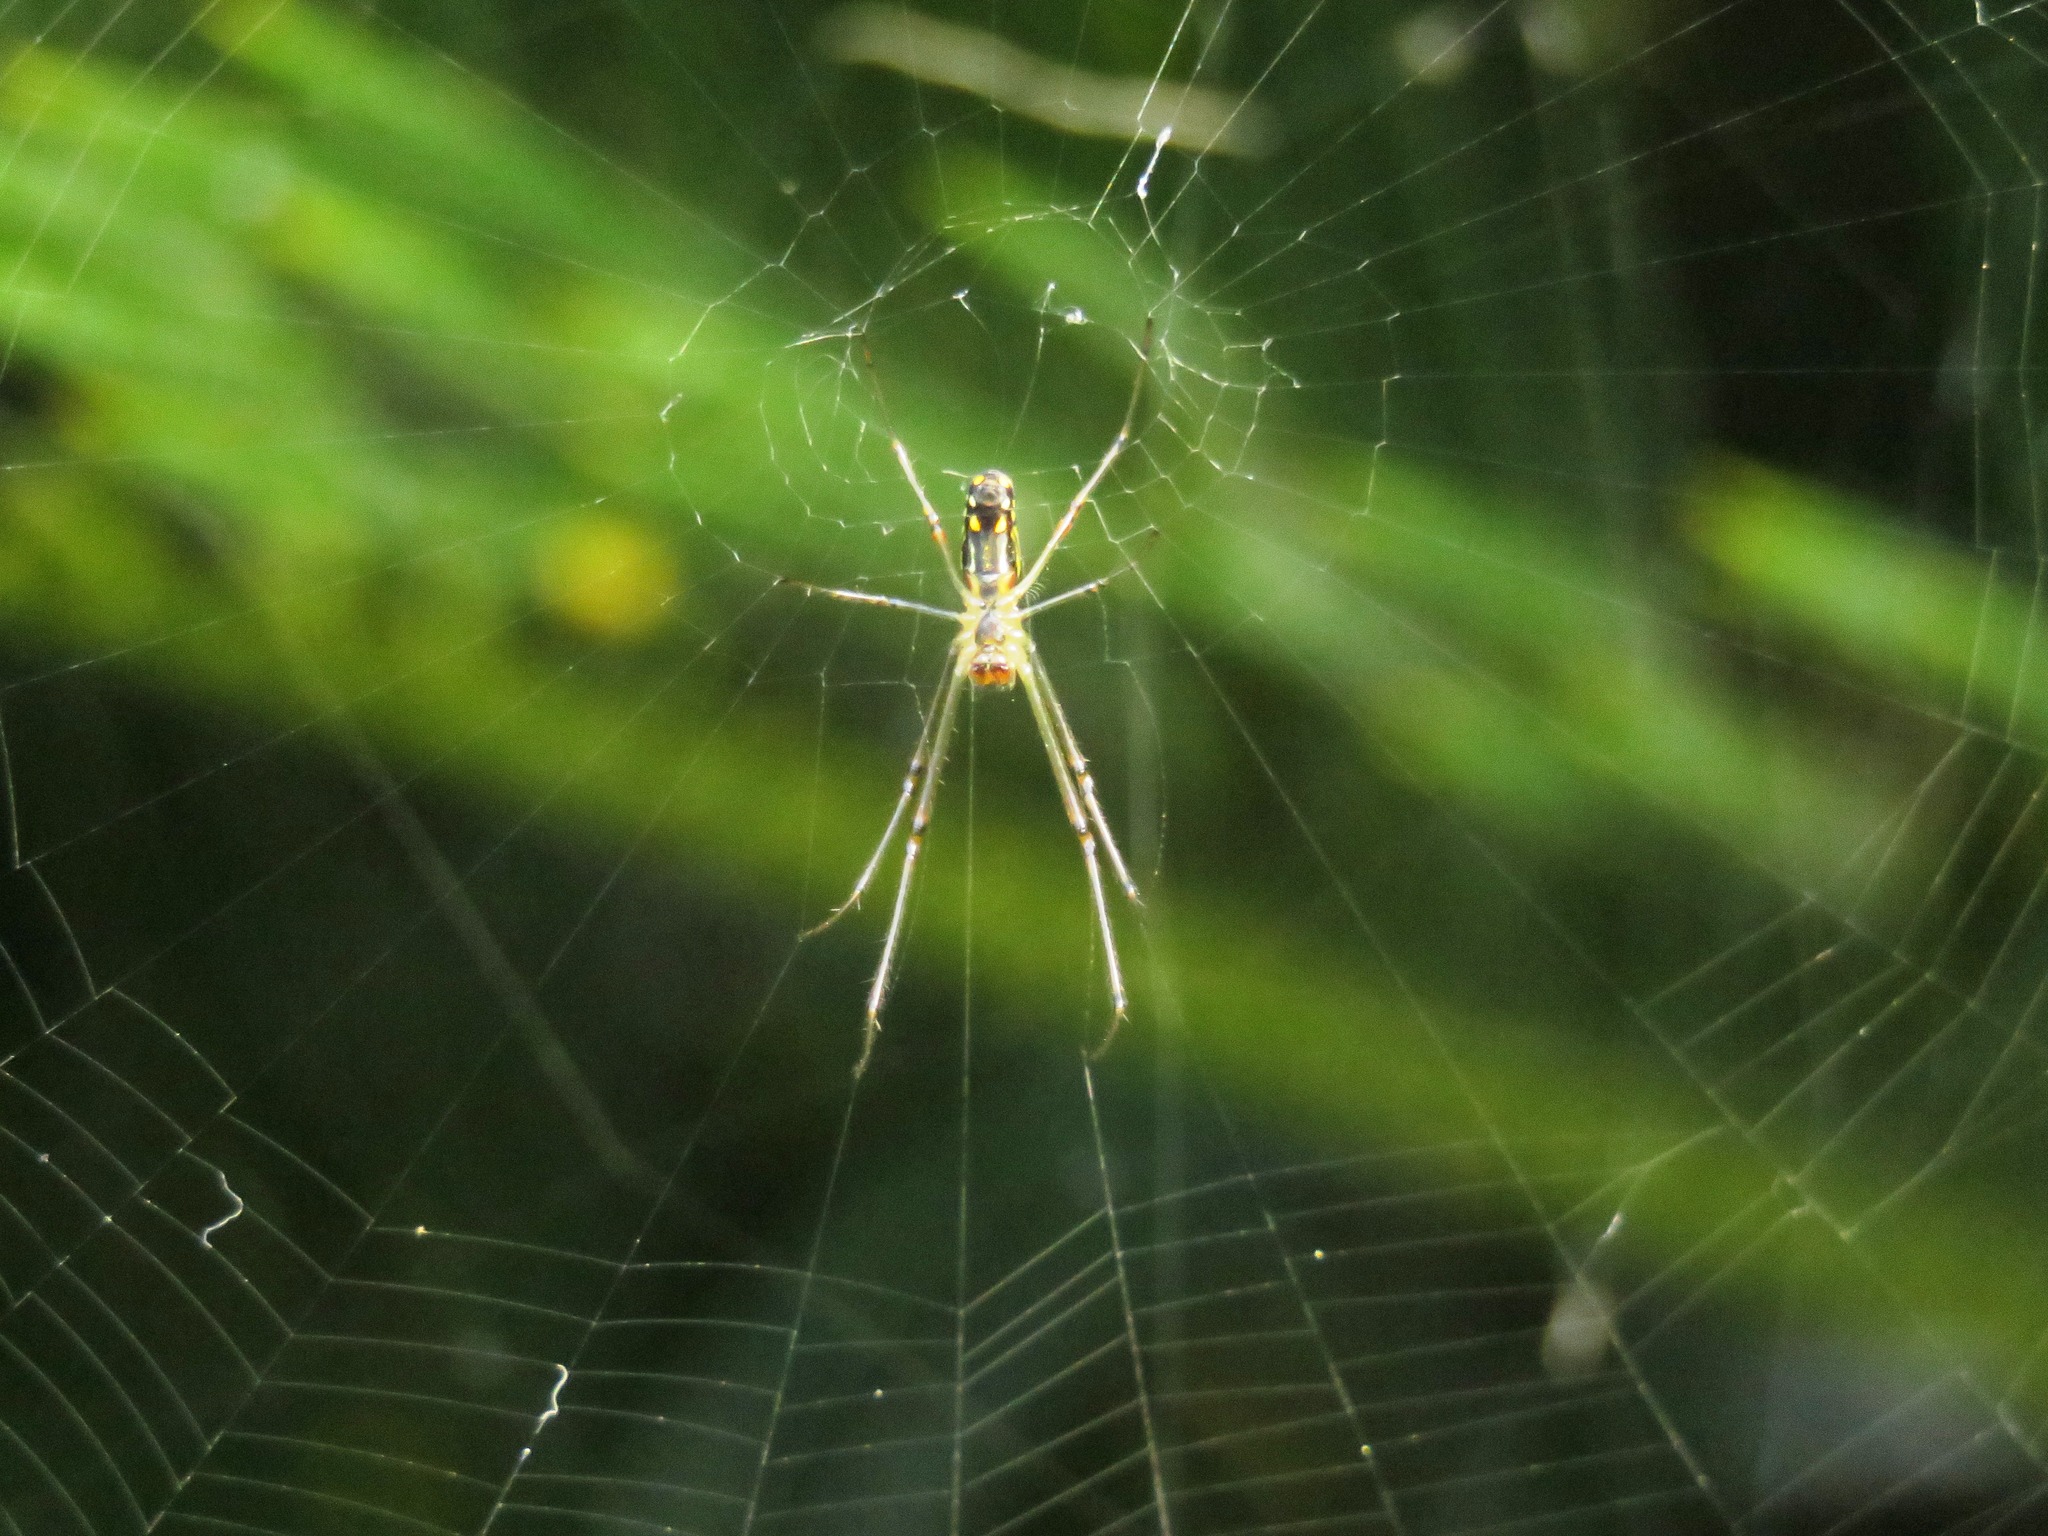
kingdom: Animalia
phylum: Arthropoda
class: Arachnida
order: Araneae
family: Tetragnathidae
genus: Leucauge
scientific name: Leucauge argyrobapta
